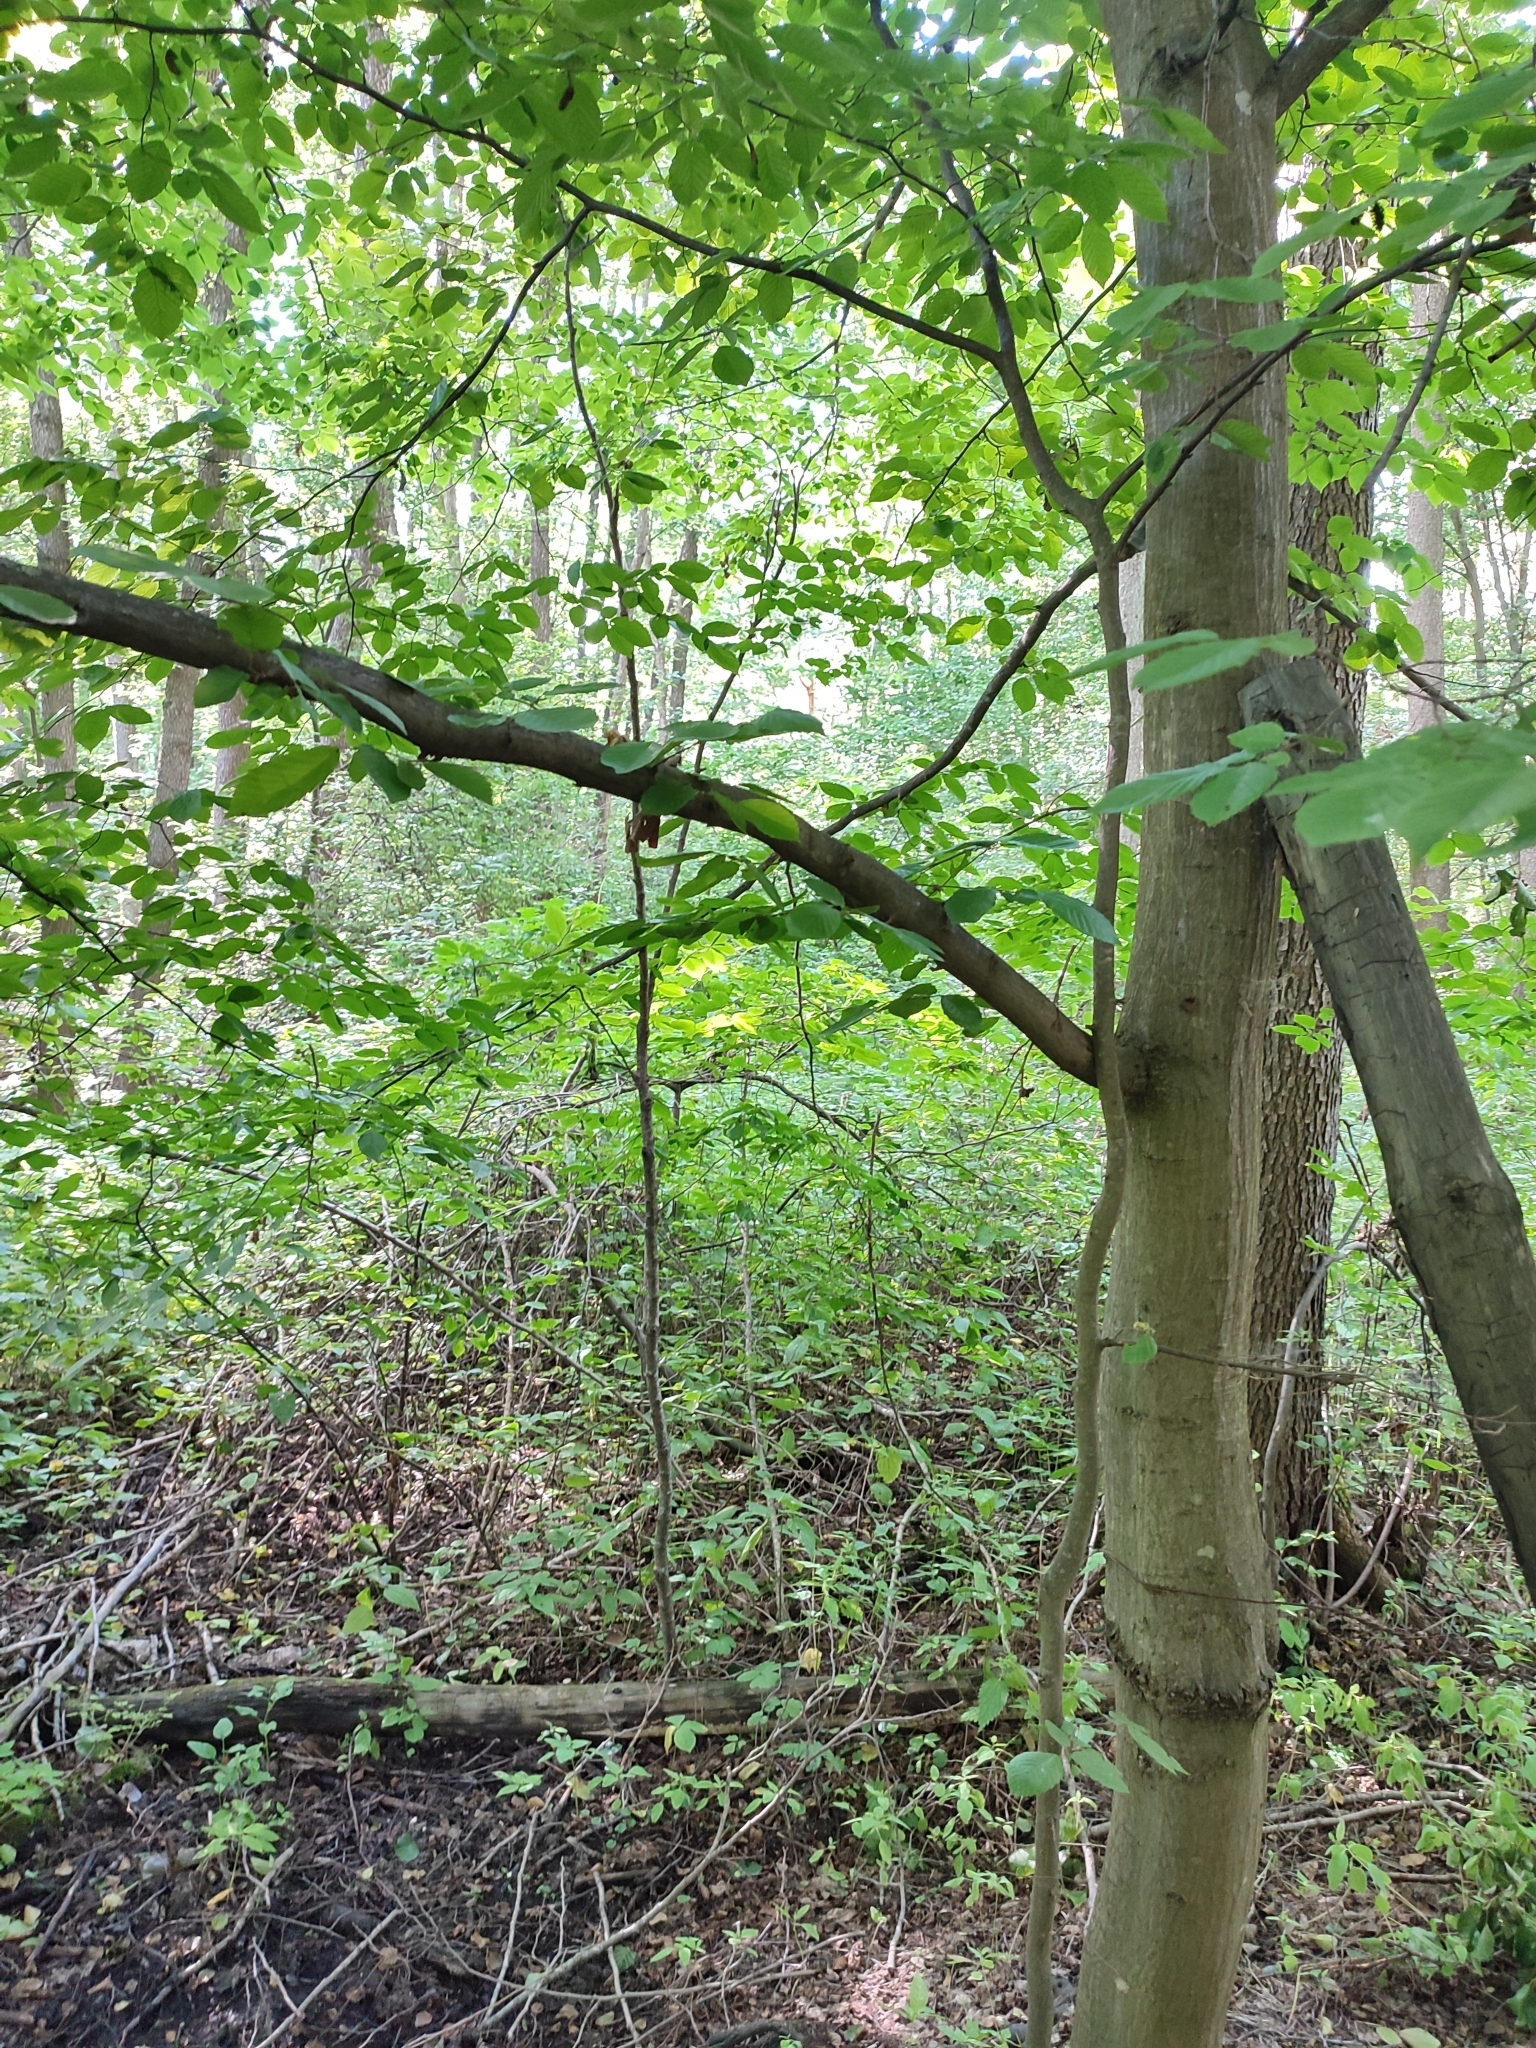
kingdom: Plantae
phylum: Tracheophyta
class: Magnoliopsida
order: Fagales
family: Betulaceae
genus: Carpinus
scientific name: Carpinus betulus
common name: Hornbeam
